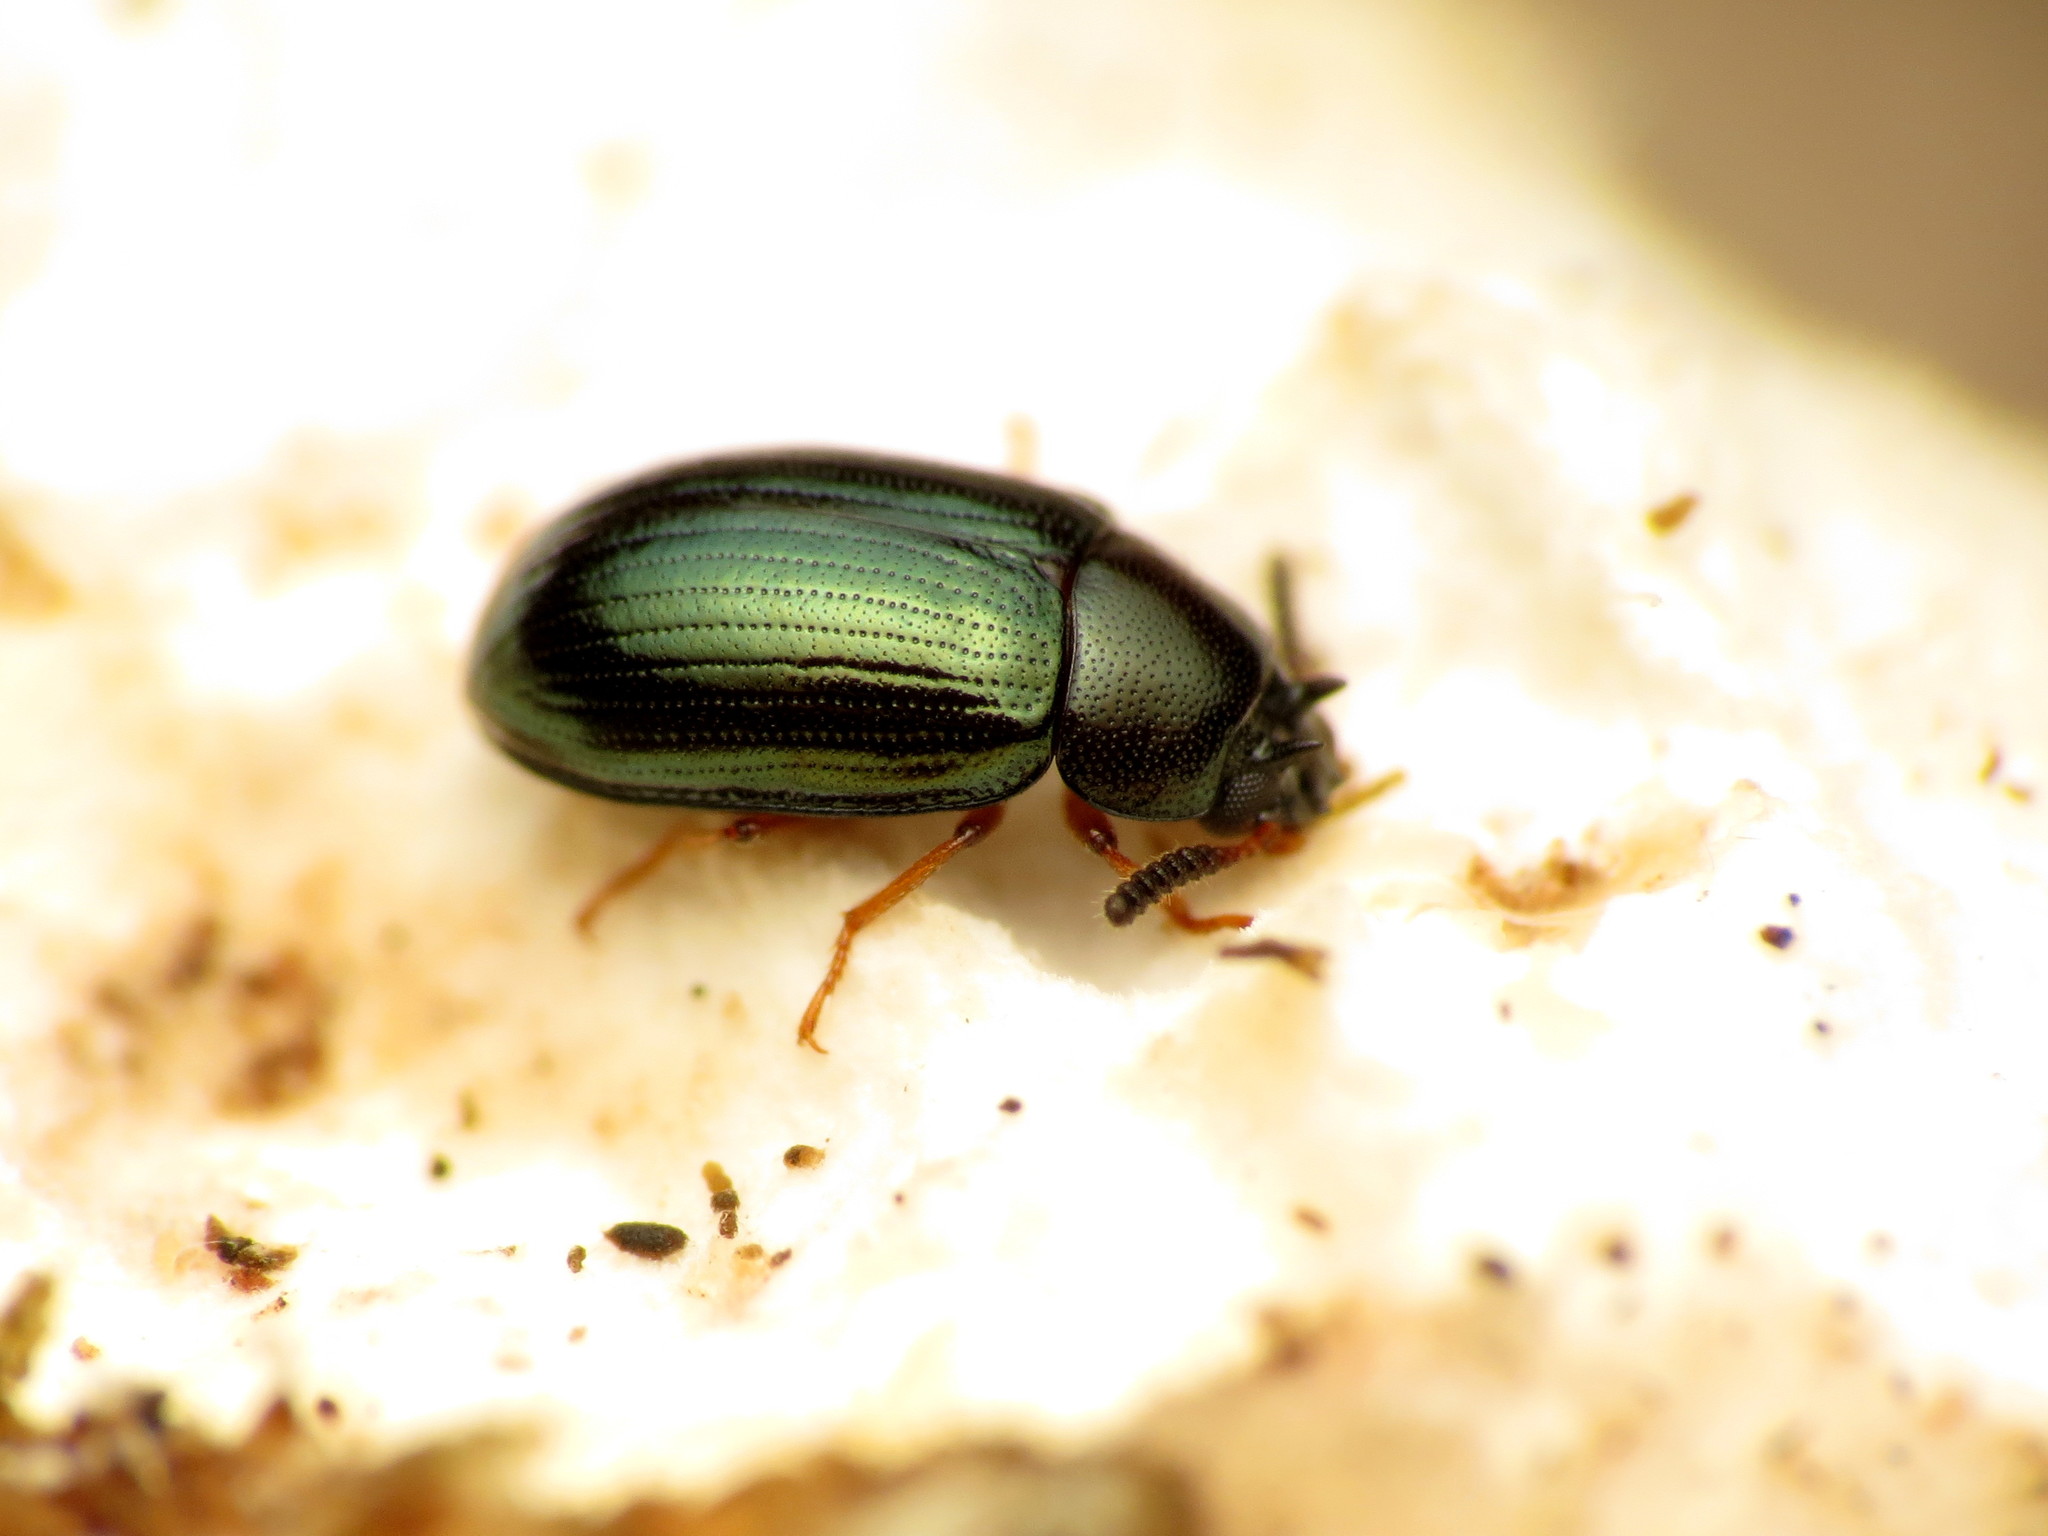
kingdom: Animalia
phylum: Arthropoda
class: Insecta
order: Coleoptera
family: Tenebrionidae
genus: Neomida
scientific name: Neomida bicornis
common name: Two-horned darkling beetle
